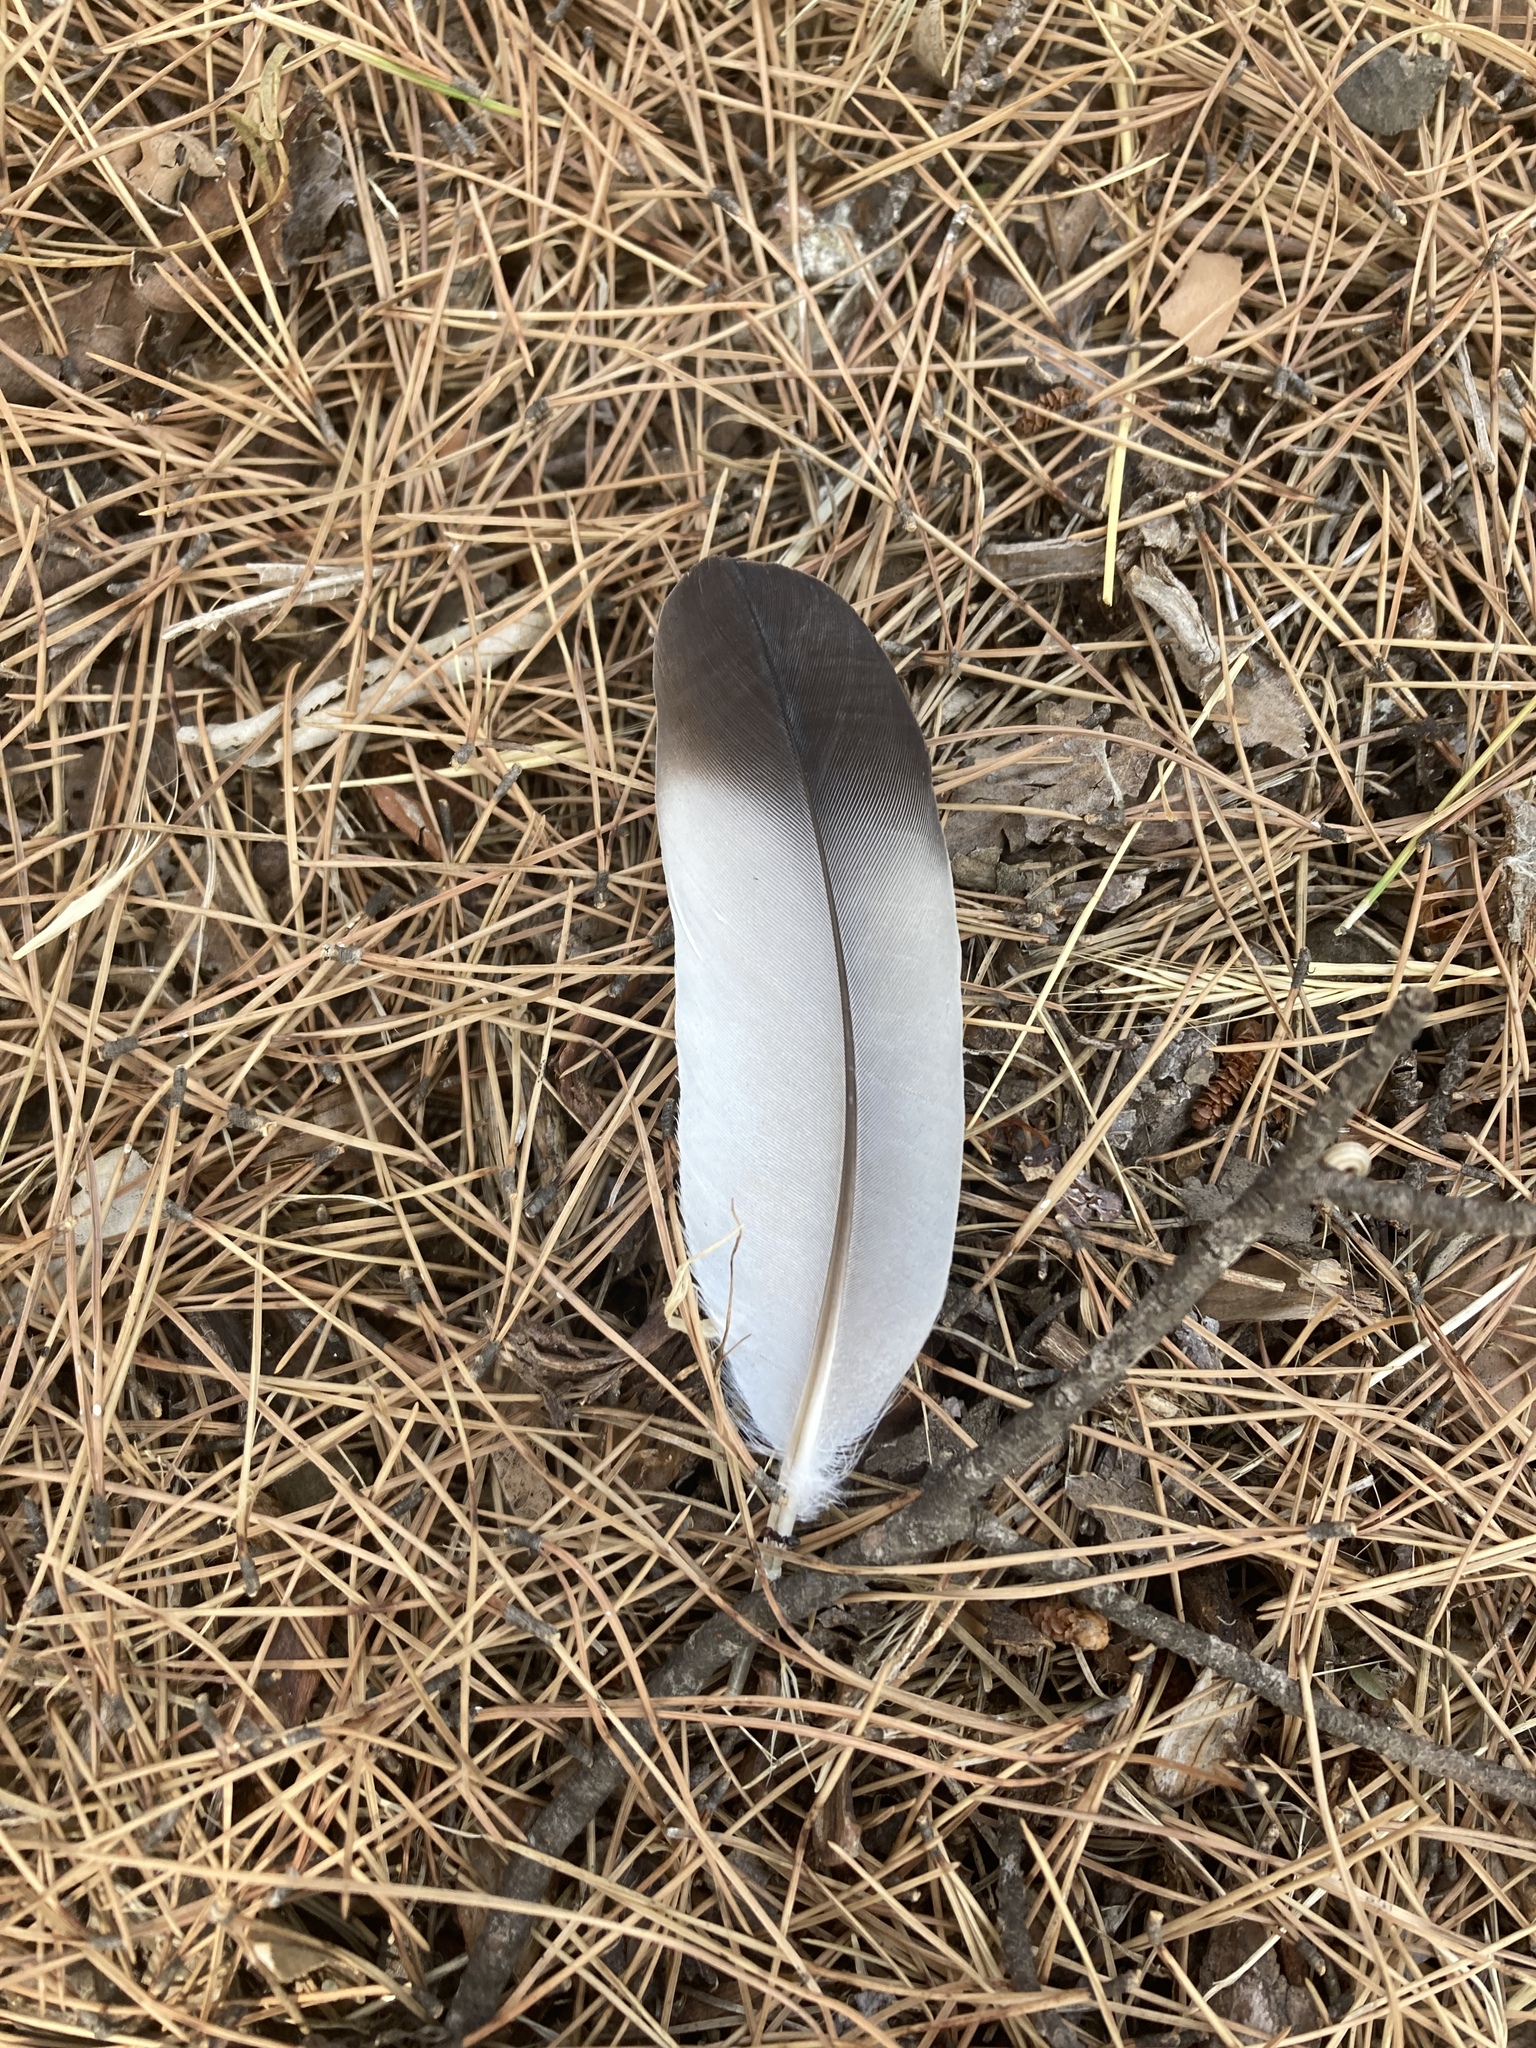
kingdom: Animalia
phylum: Chordata
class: Aves
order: Columbiformes
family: Columbidae
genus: Columba
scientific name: Columba livia
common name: Rock pigeon
